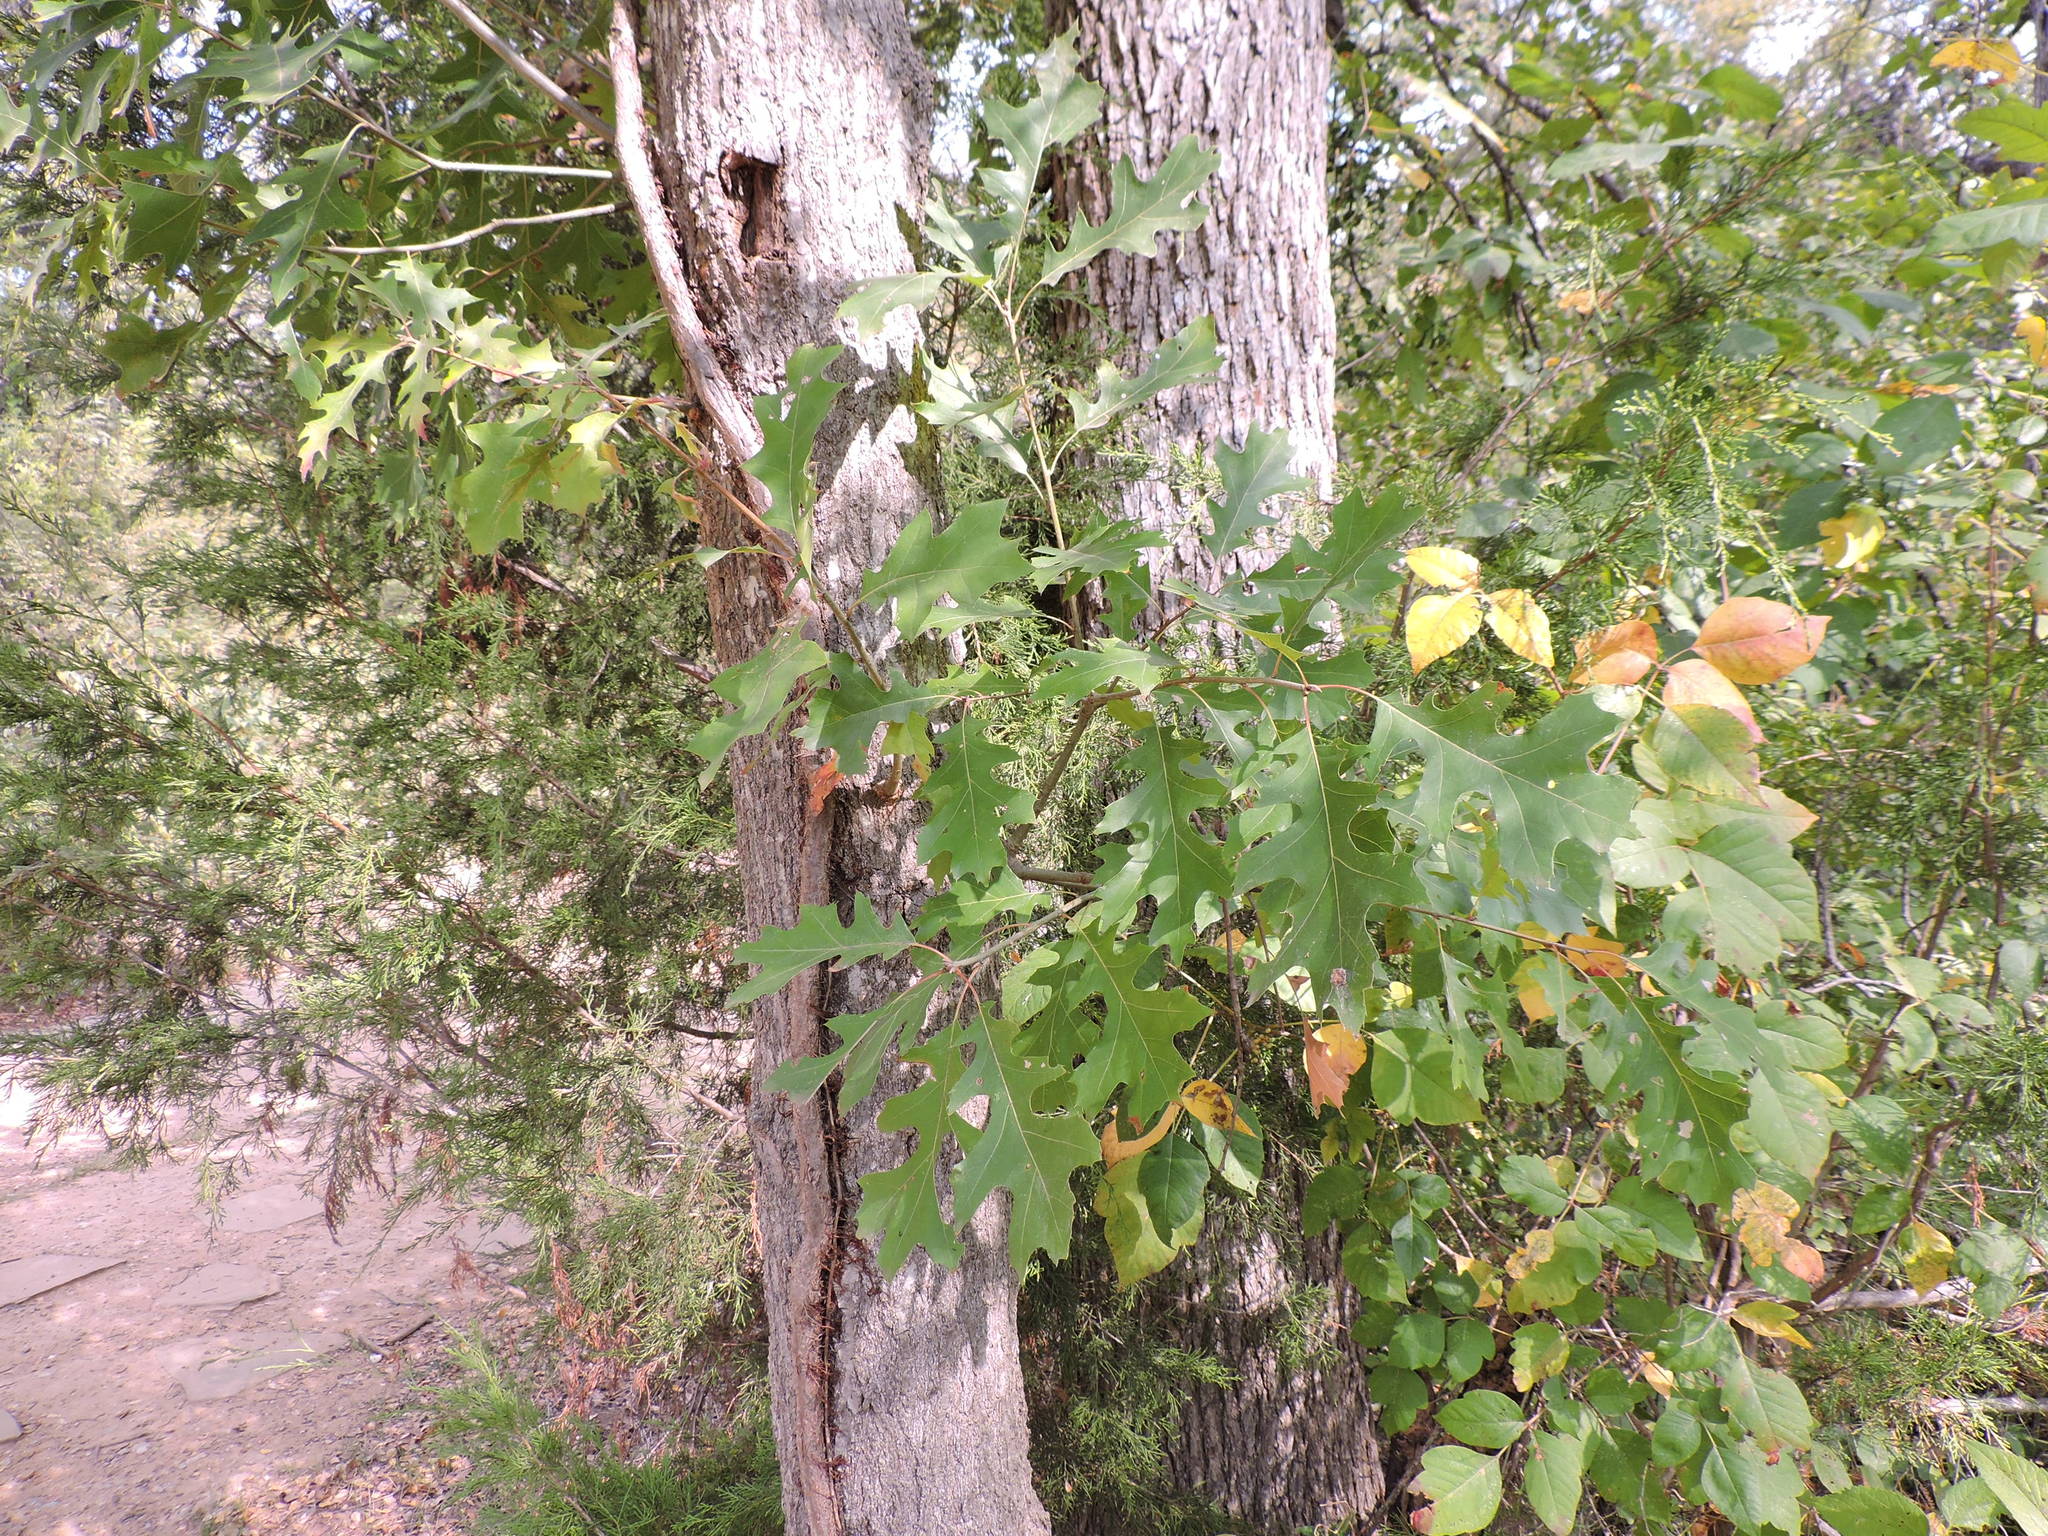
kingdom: Plantae
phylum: Tracheophyta
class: Magnoliopsida
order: Fagales
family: Fagaceae
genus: Quercus
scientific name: Quercus shumardii
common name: Shumard oak
